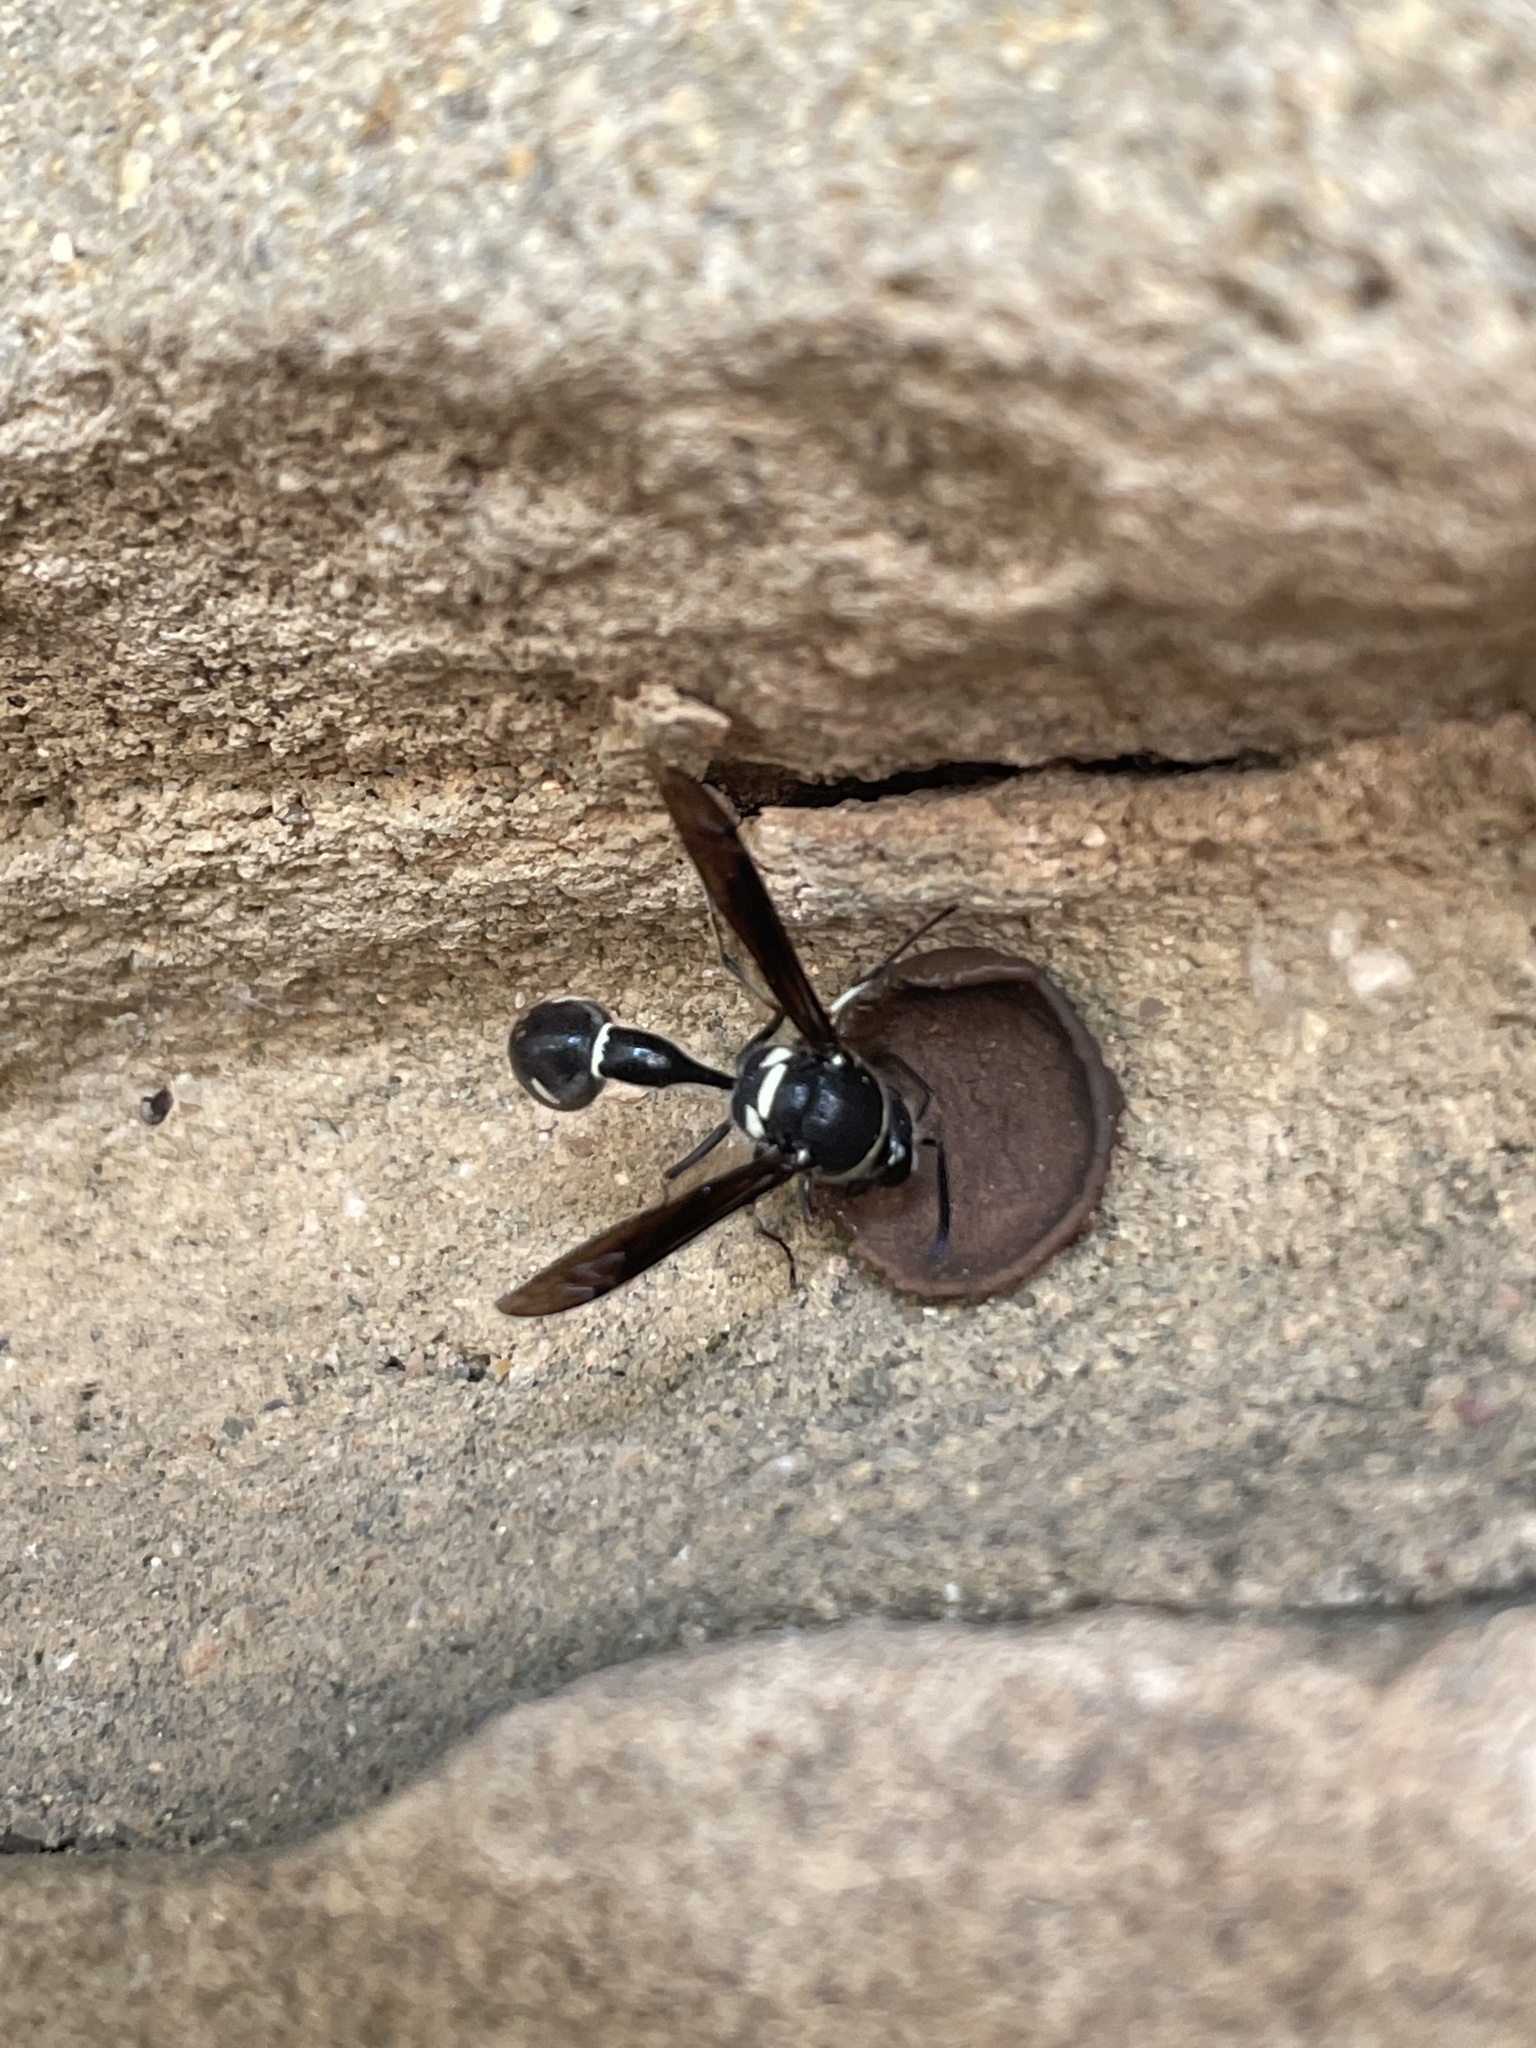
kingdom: Animalia
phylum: Arthropoda
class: Insecta
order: Hymenoptera
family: Vespidae
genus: Eumenes
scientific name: Eumenes fraternus
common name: Fraternal potter wasp
